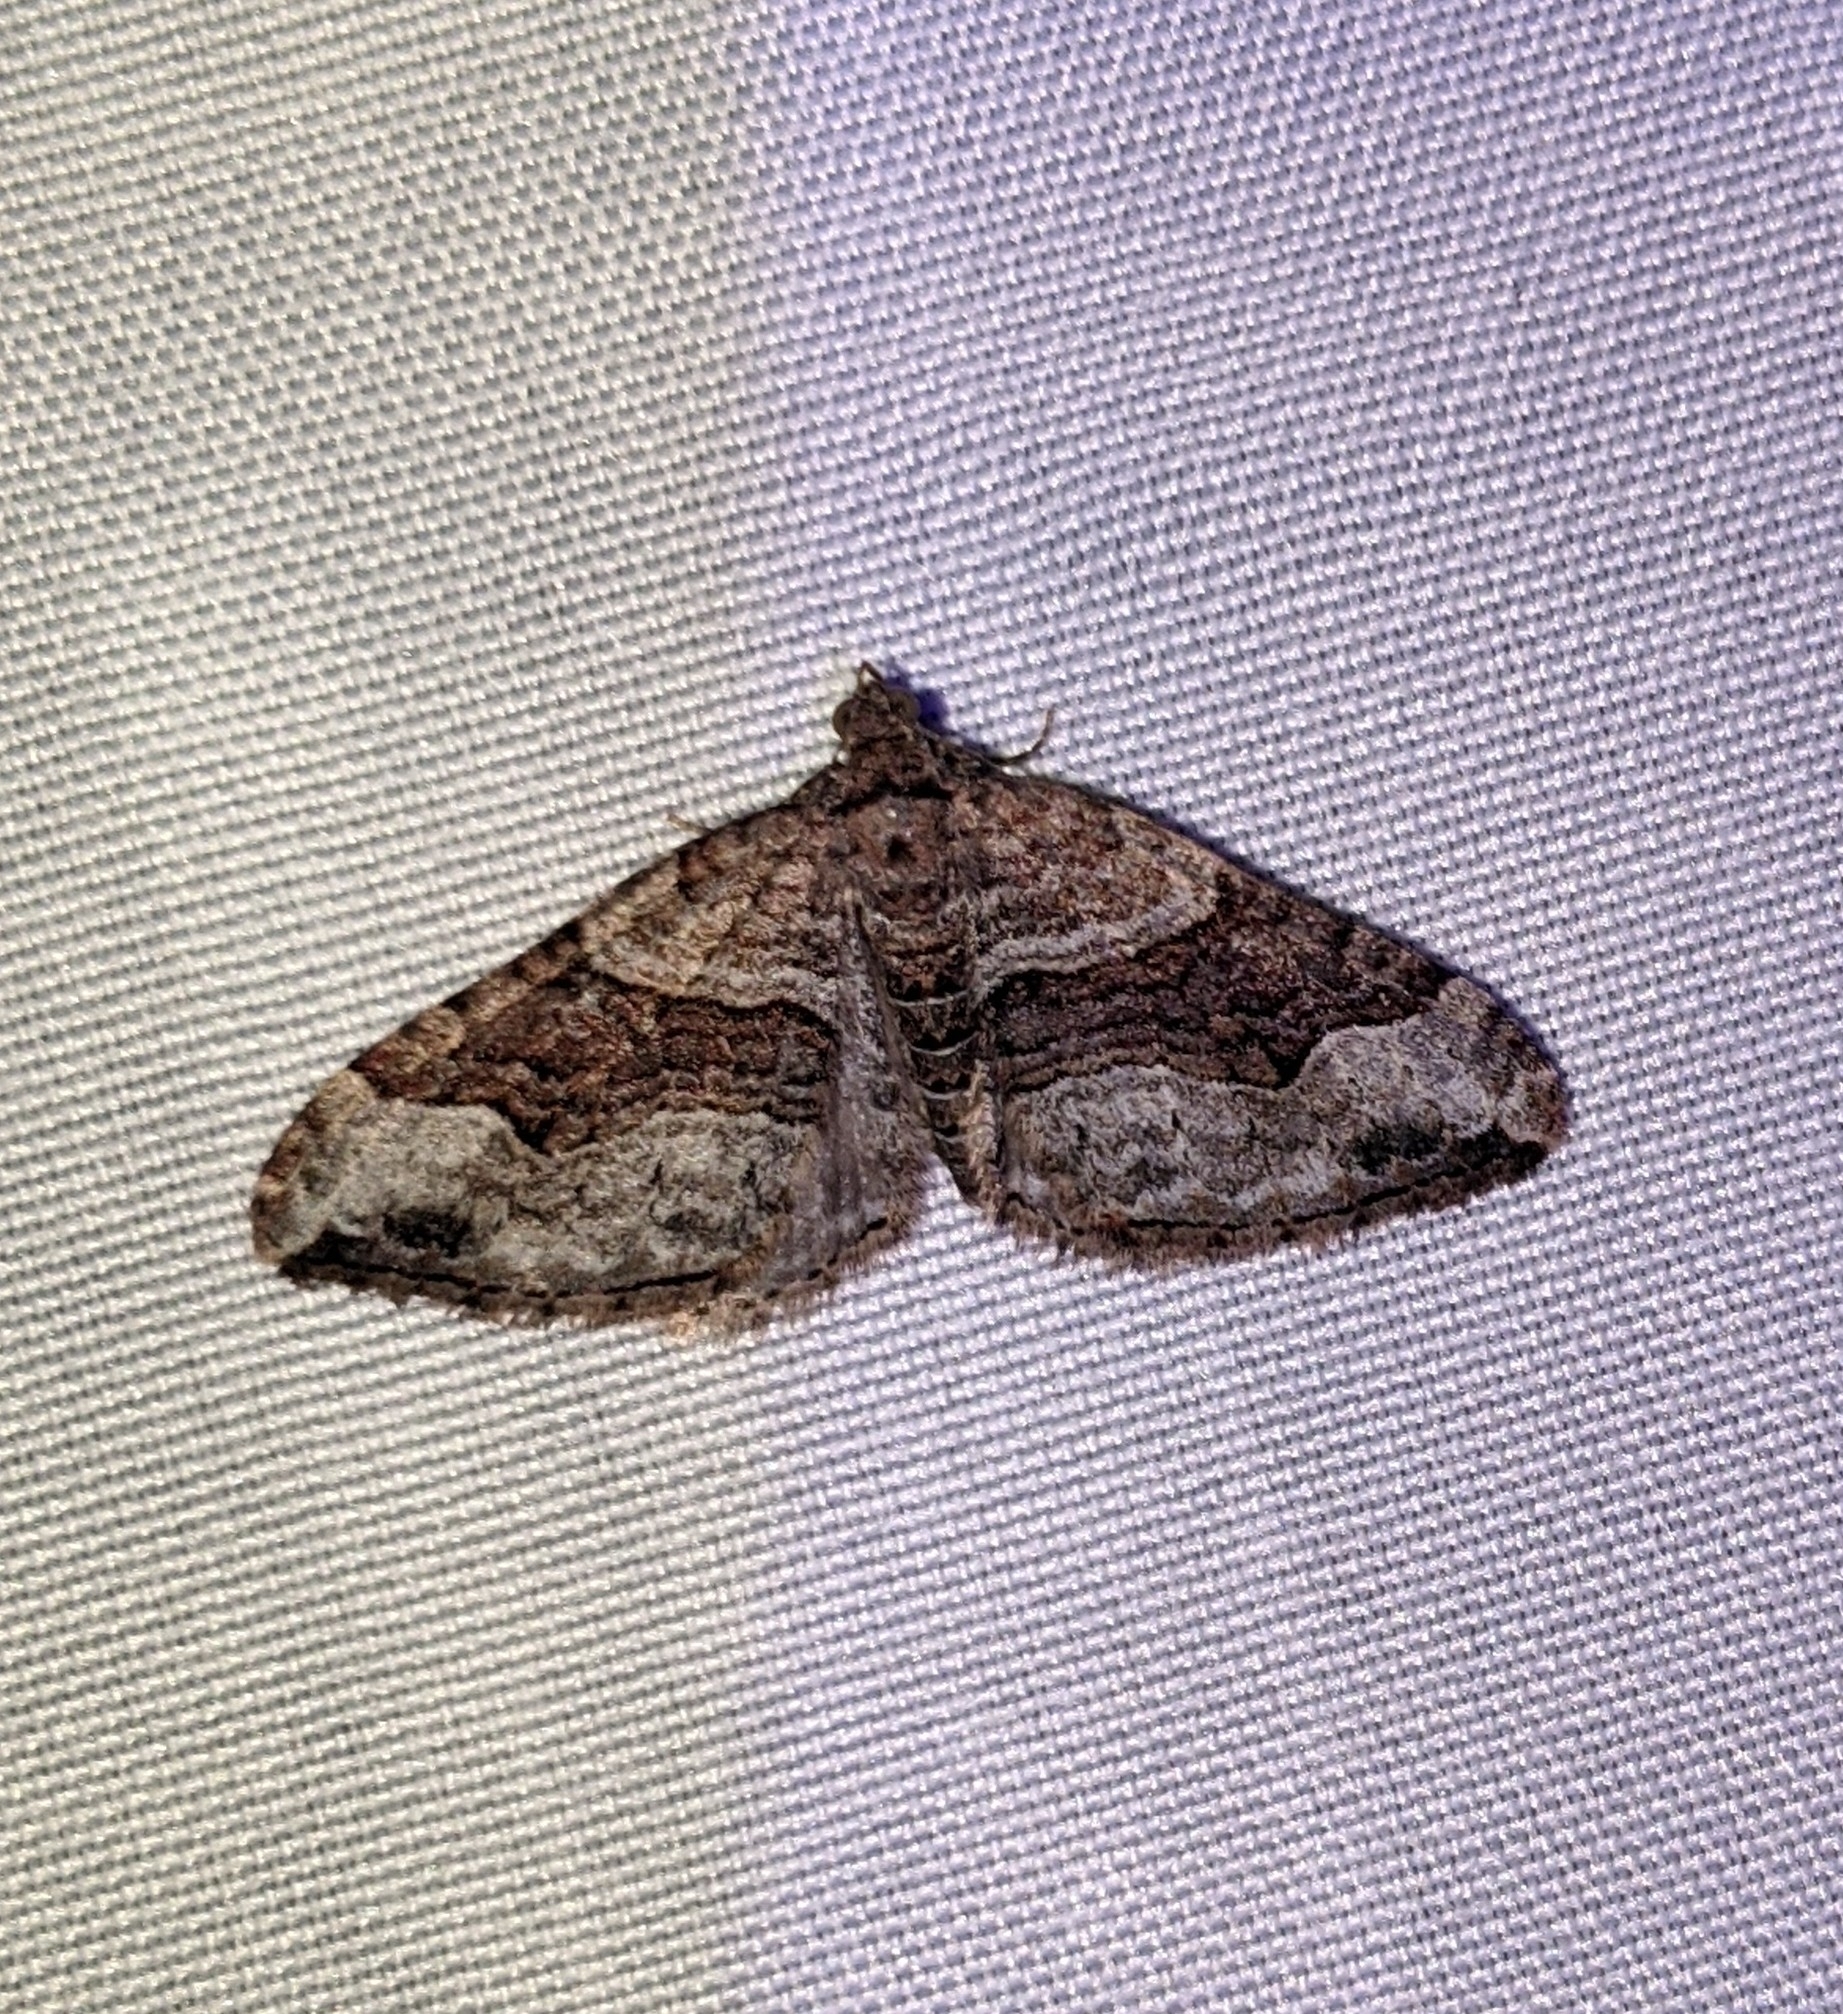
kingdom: Animalia
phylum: Arthropoda
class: Insecta
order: Lepidoptera
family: Geometridae
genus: Xanthorhoe
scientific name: Xanthorhoe defensaria
